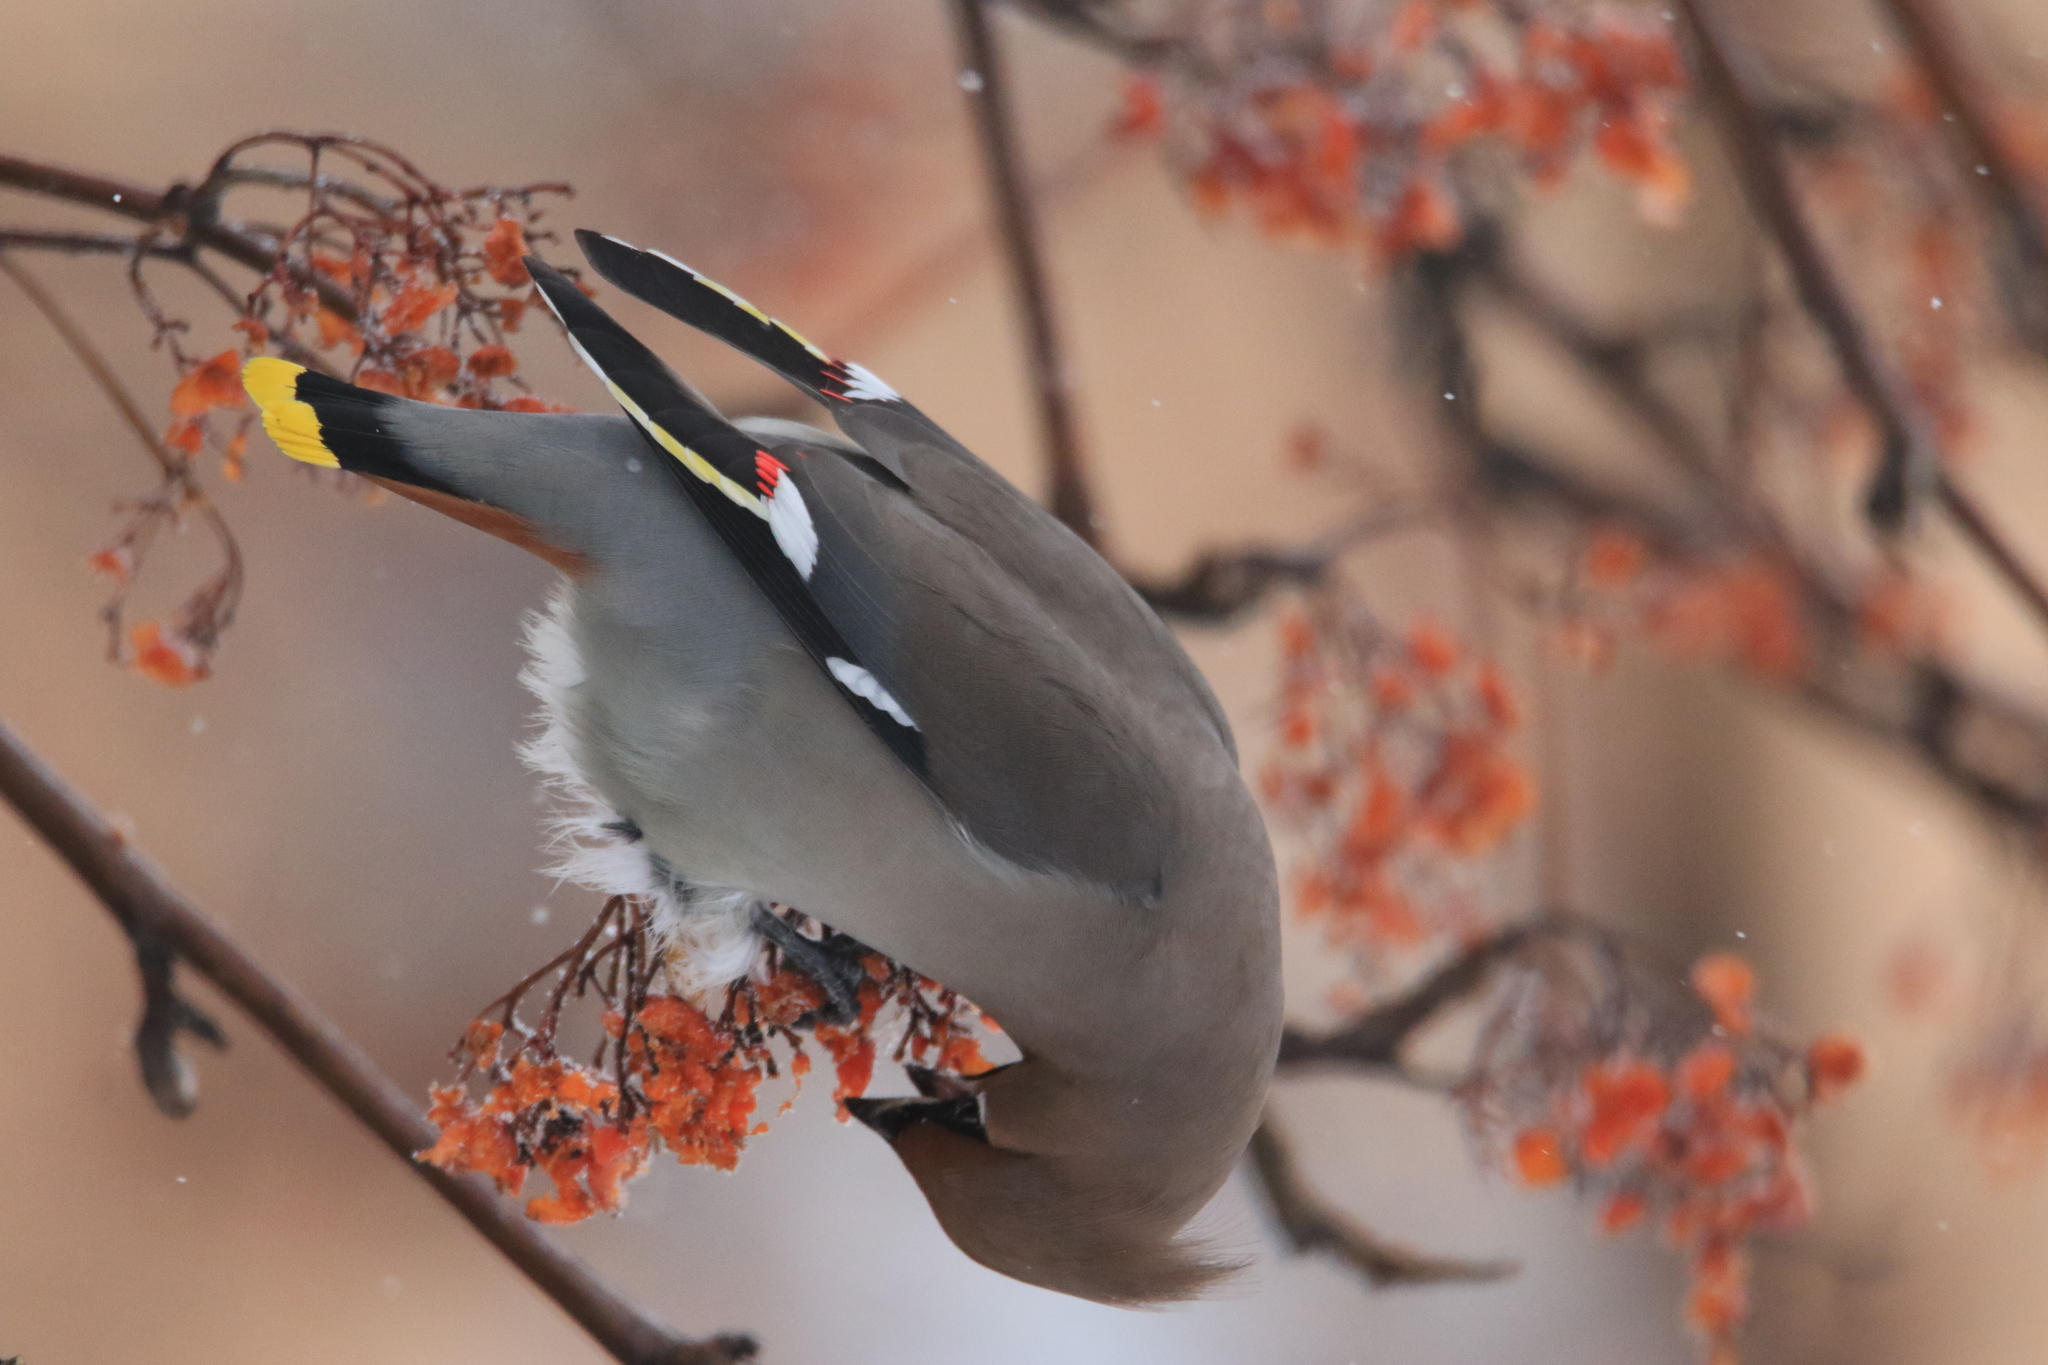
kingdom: Animalia
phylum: Chordata
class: Aves
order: Passeriformes
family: Bombycillidae
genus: Bombycilla
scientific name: Bombycilla garrulus
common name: Bohemian waxwing
